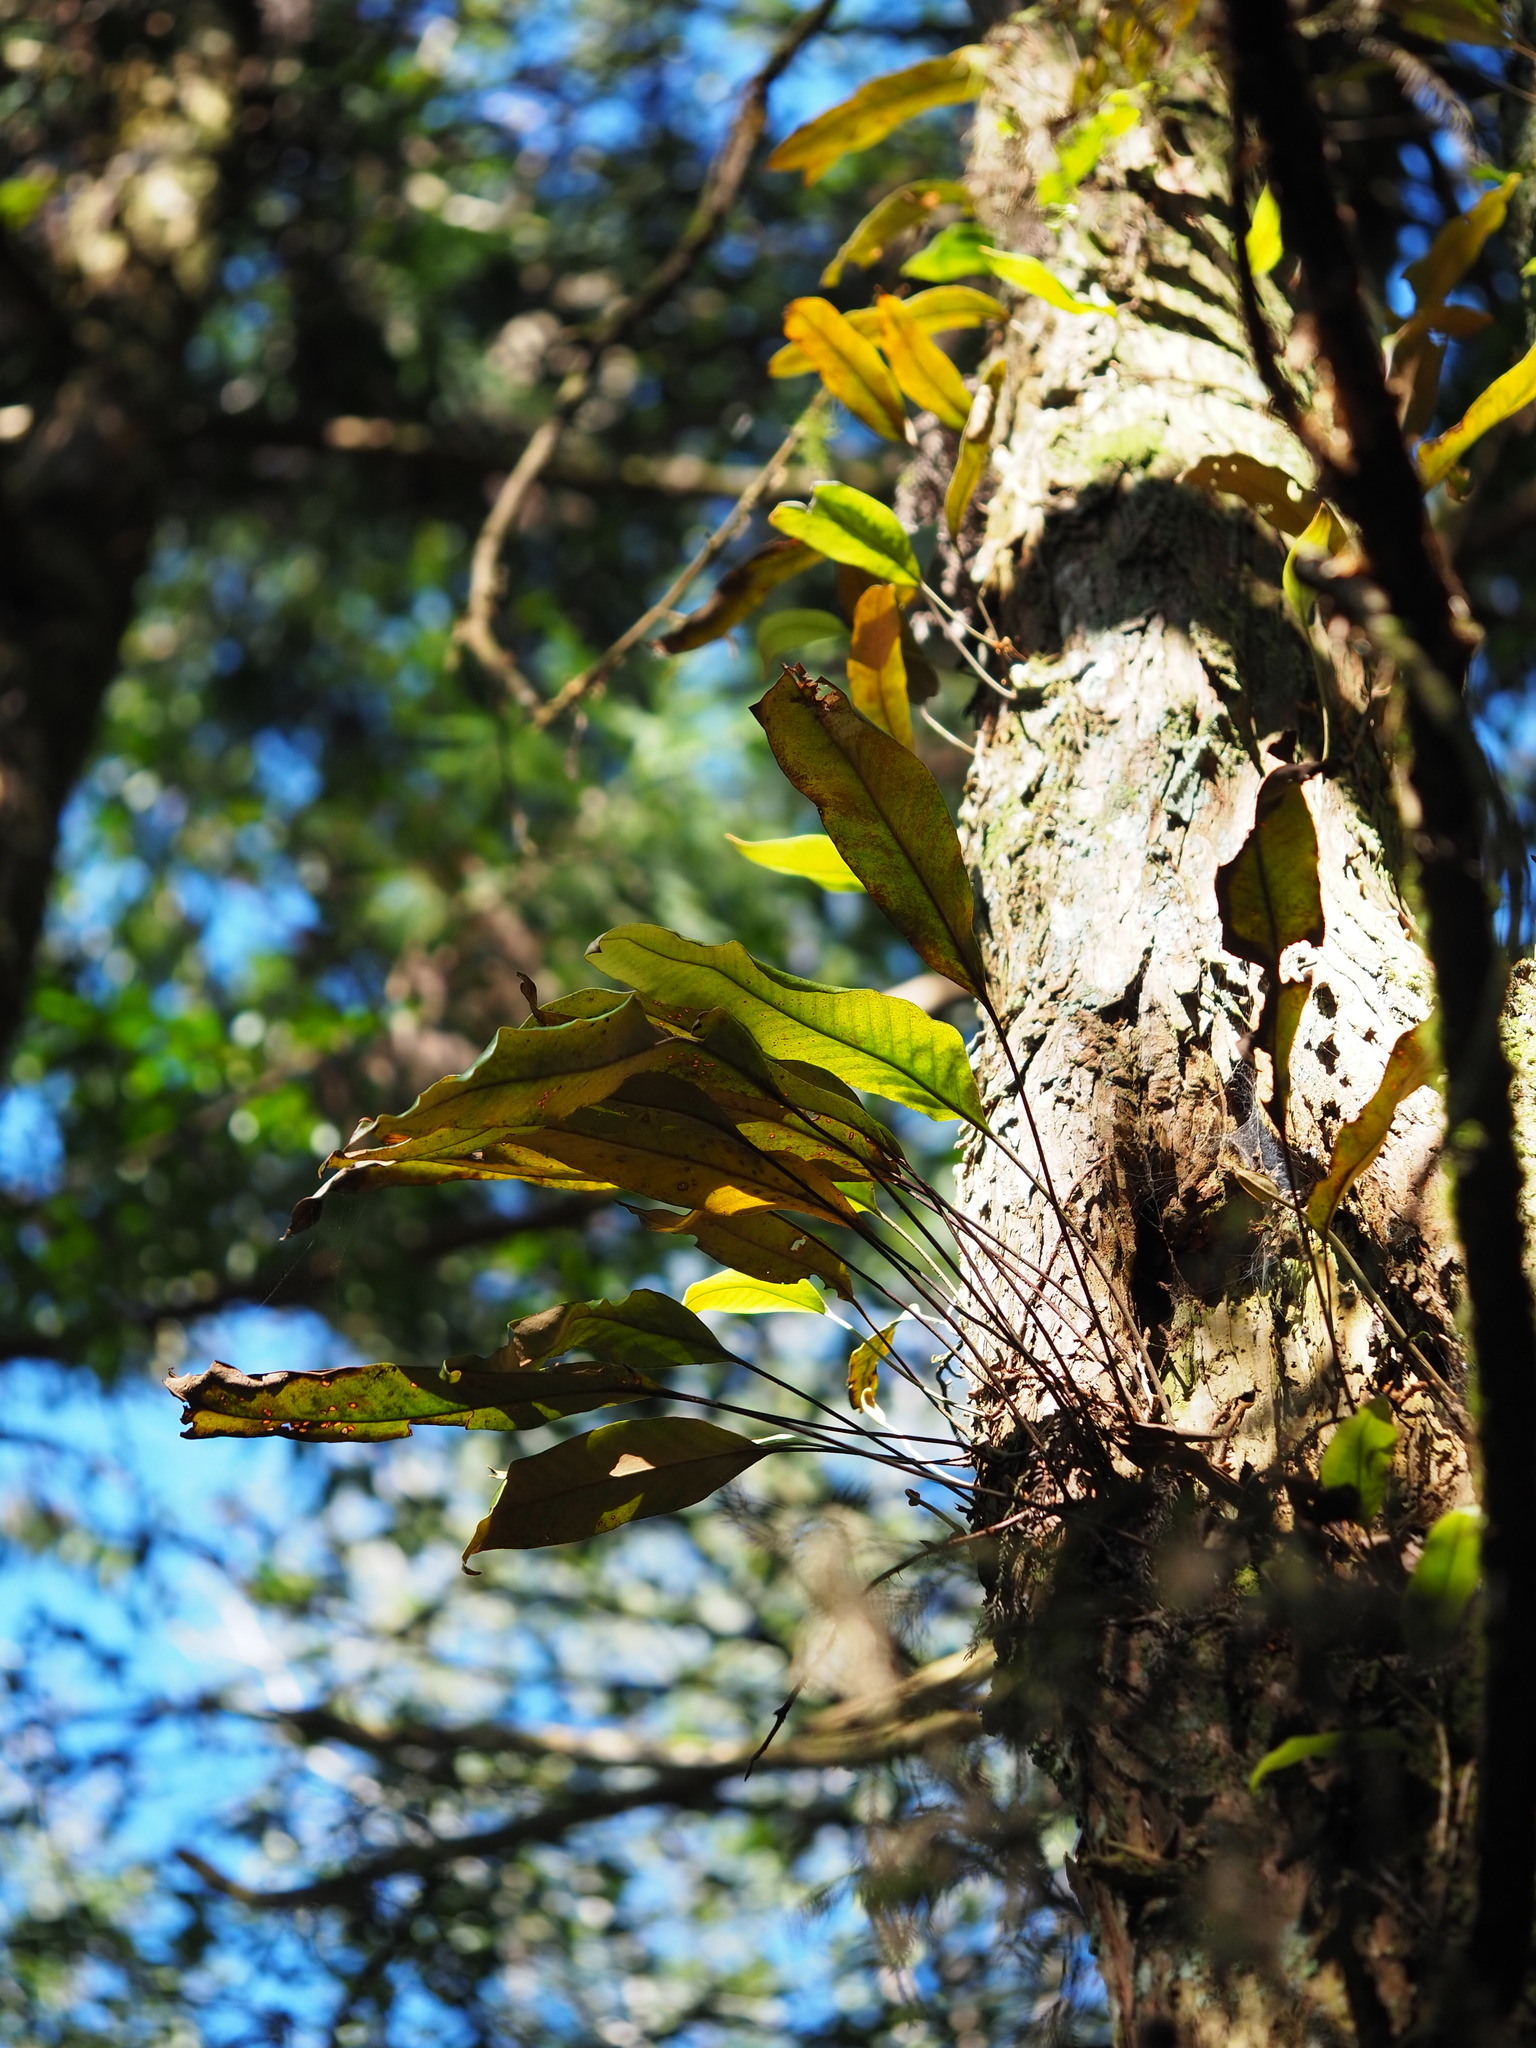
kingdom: Plantae
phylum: Tracheophyta
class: Polypodiopsida
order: Polypodiales
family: Polypodiaceae
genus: Pyrrosia
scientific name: Pyrrosia lingua
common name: Felt fern
